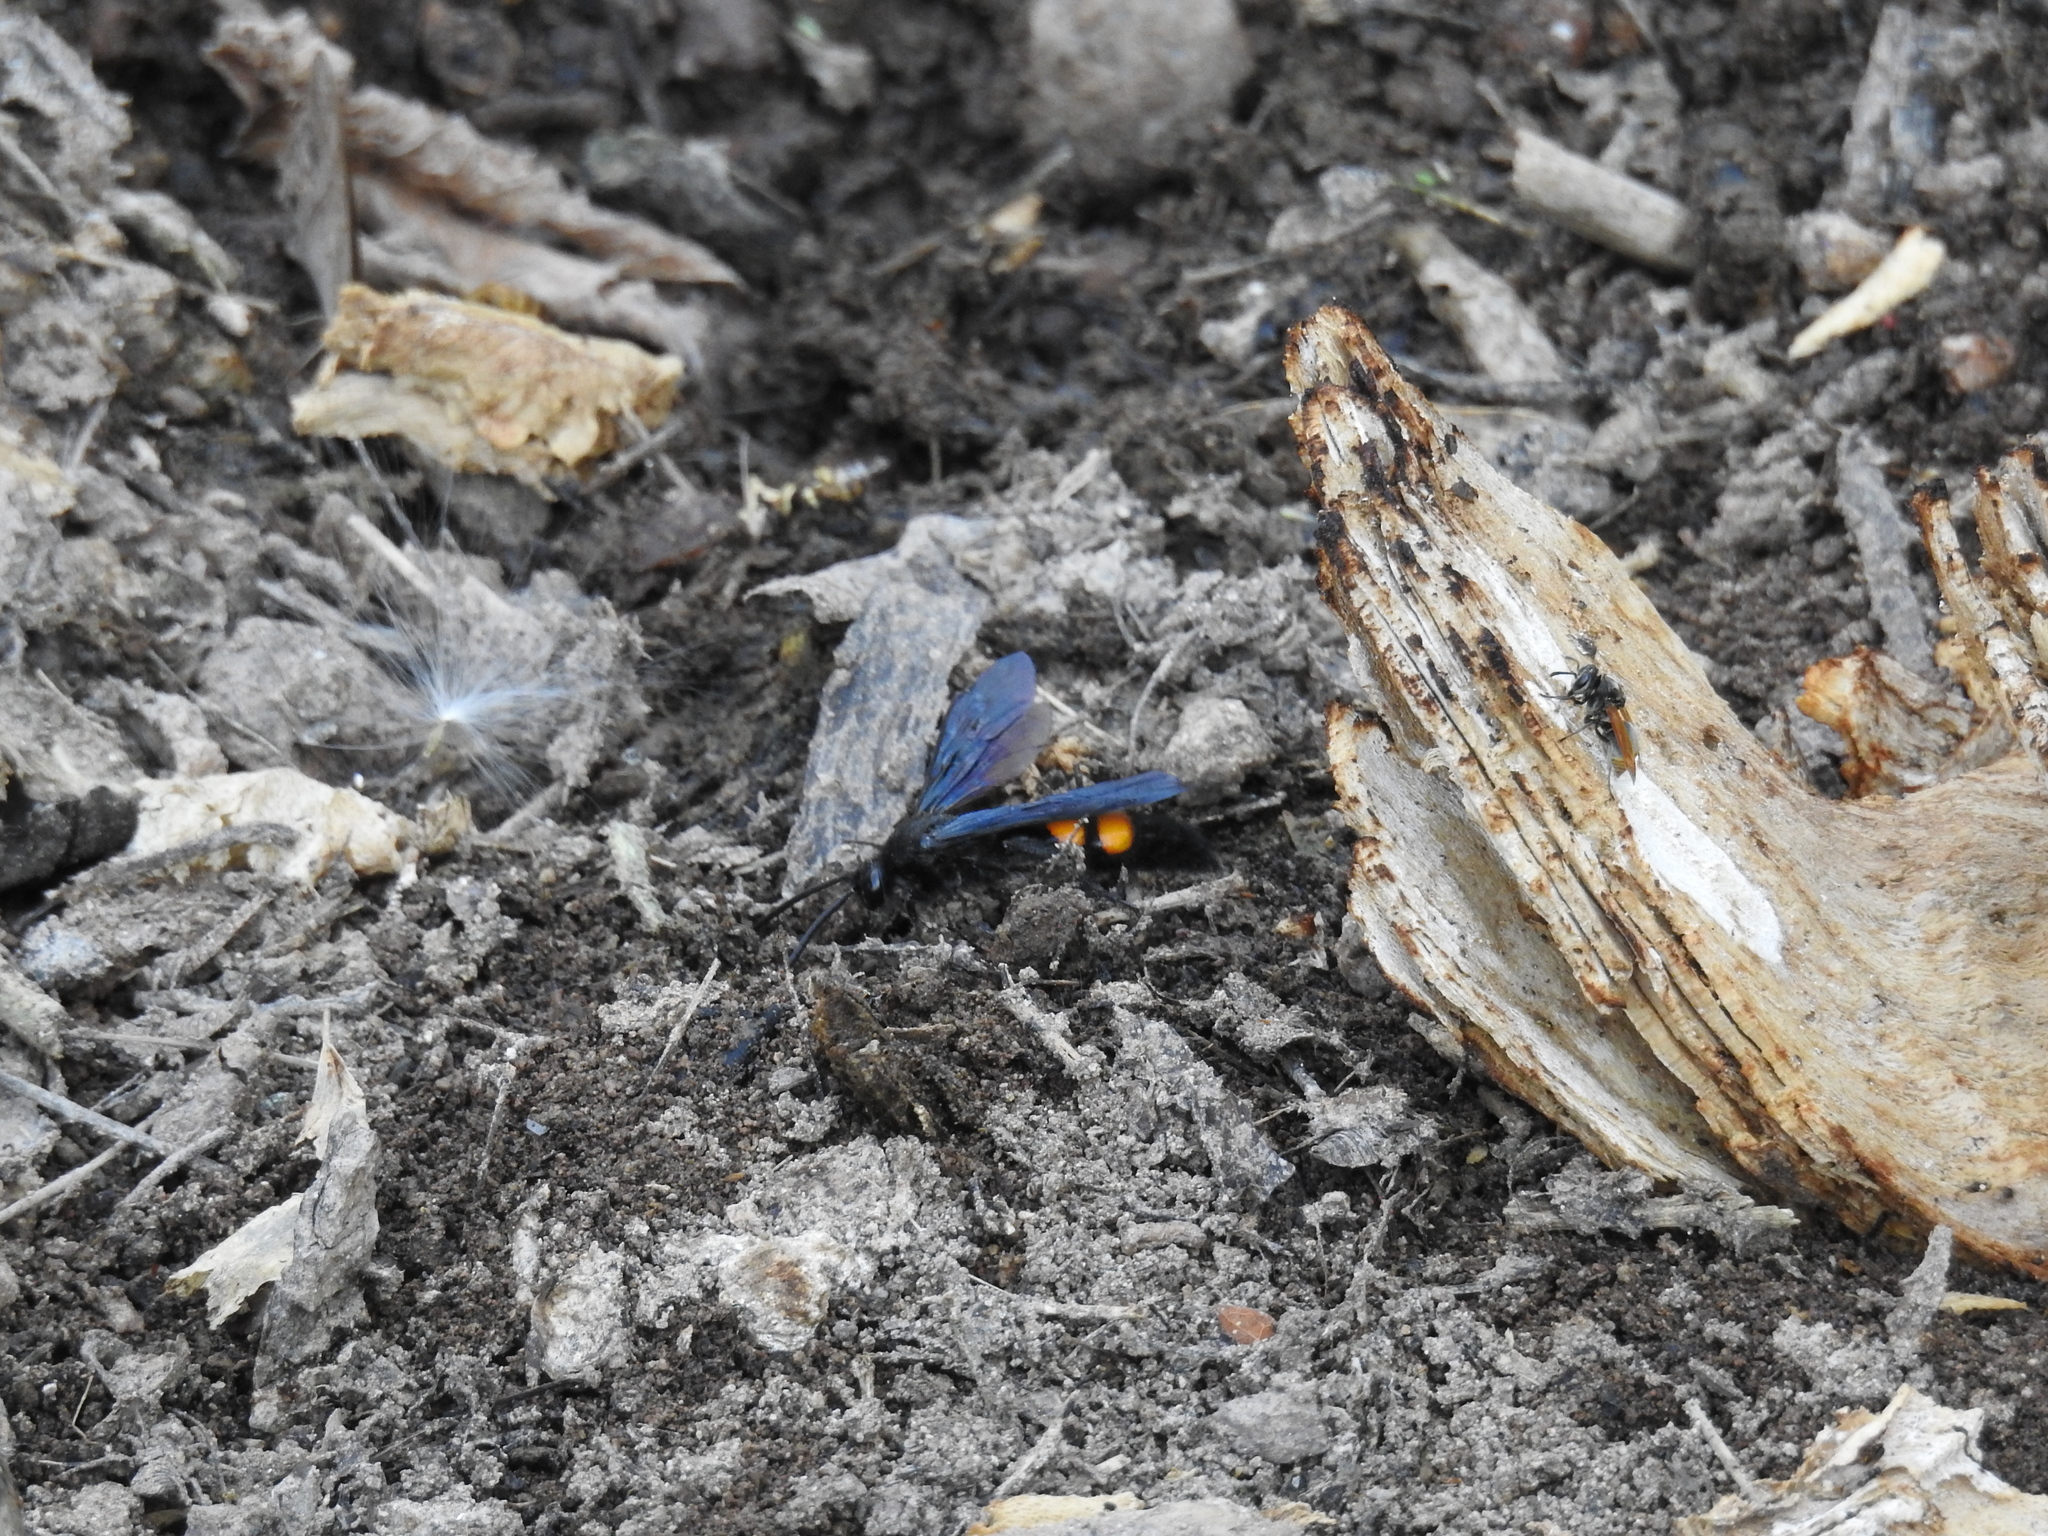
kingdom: Animalia
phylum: Arthropoda
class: Insecta
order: Hymenoptera
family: Scoliidae
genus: Pygodasis
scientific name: Pygodasis ephippium
